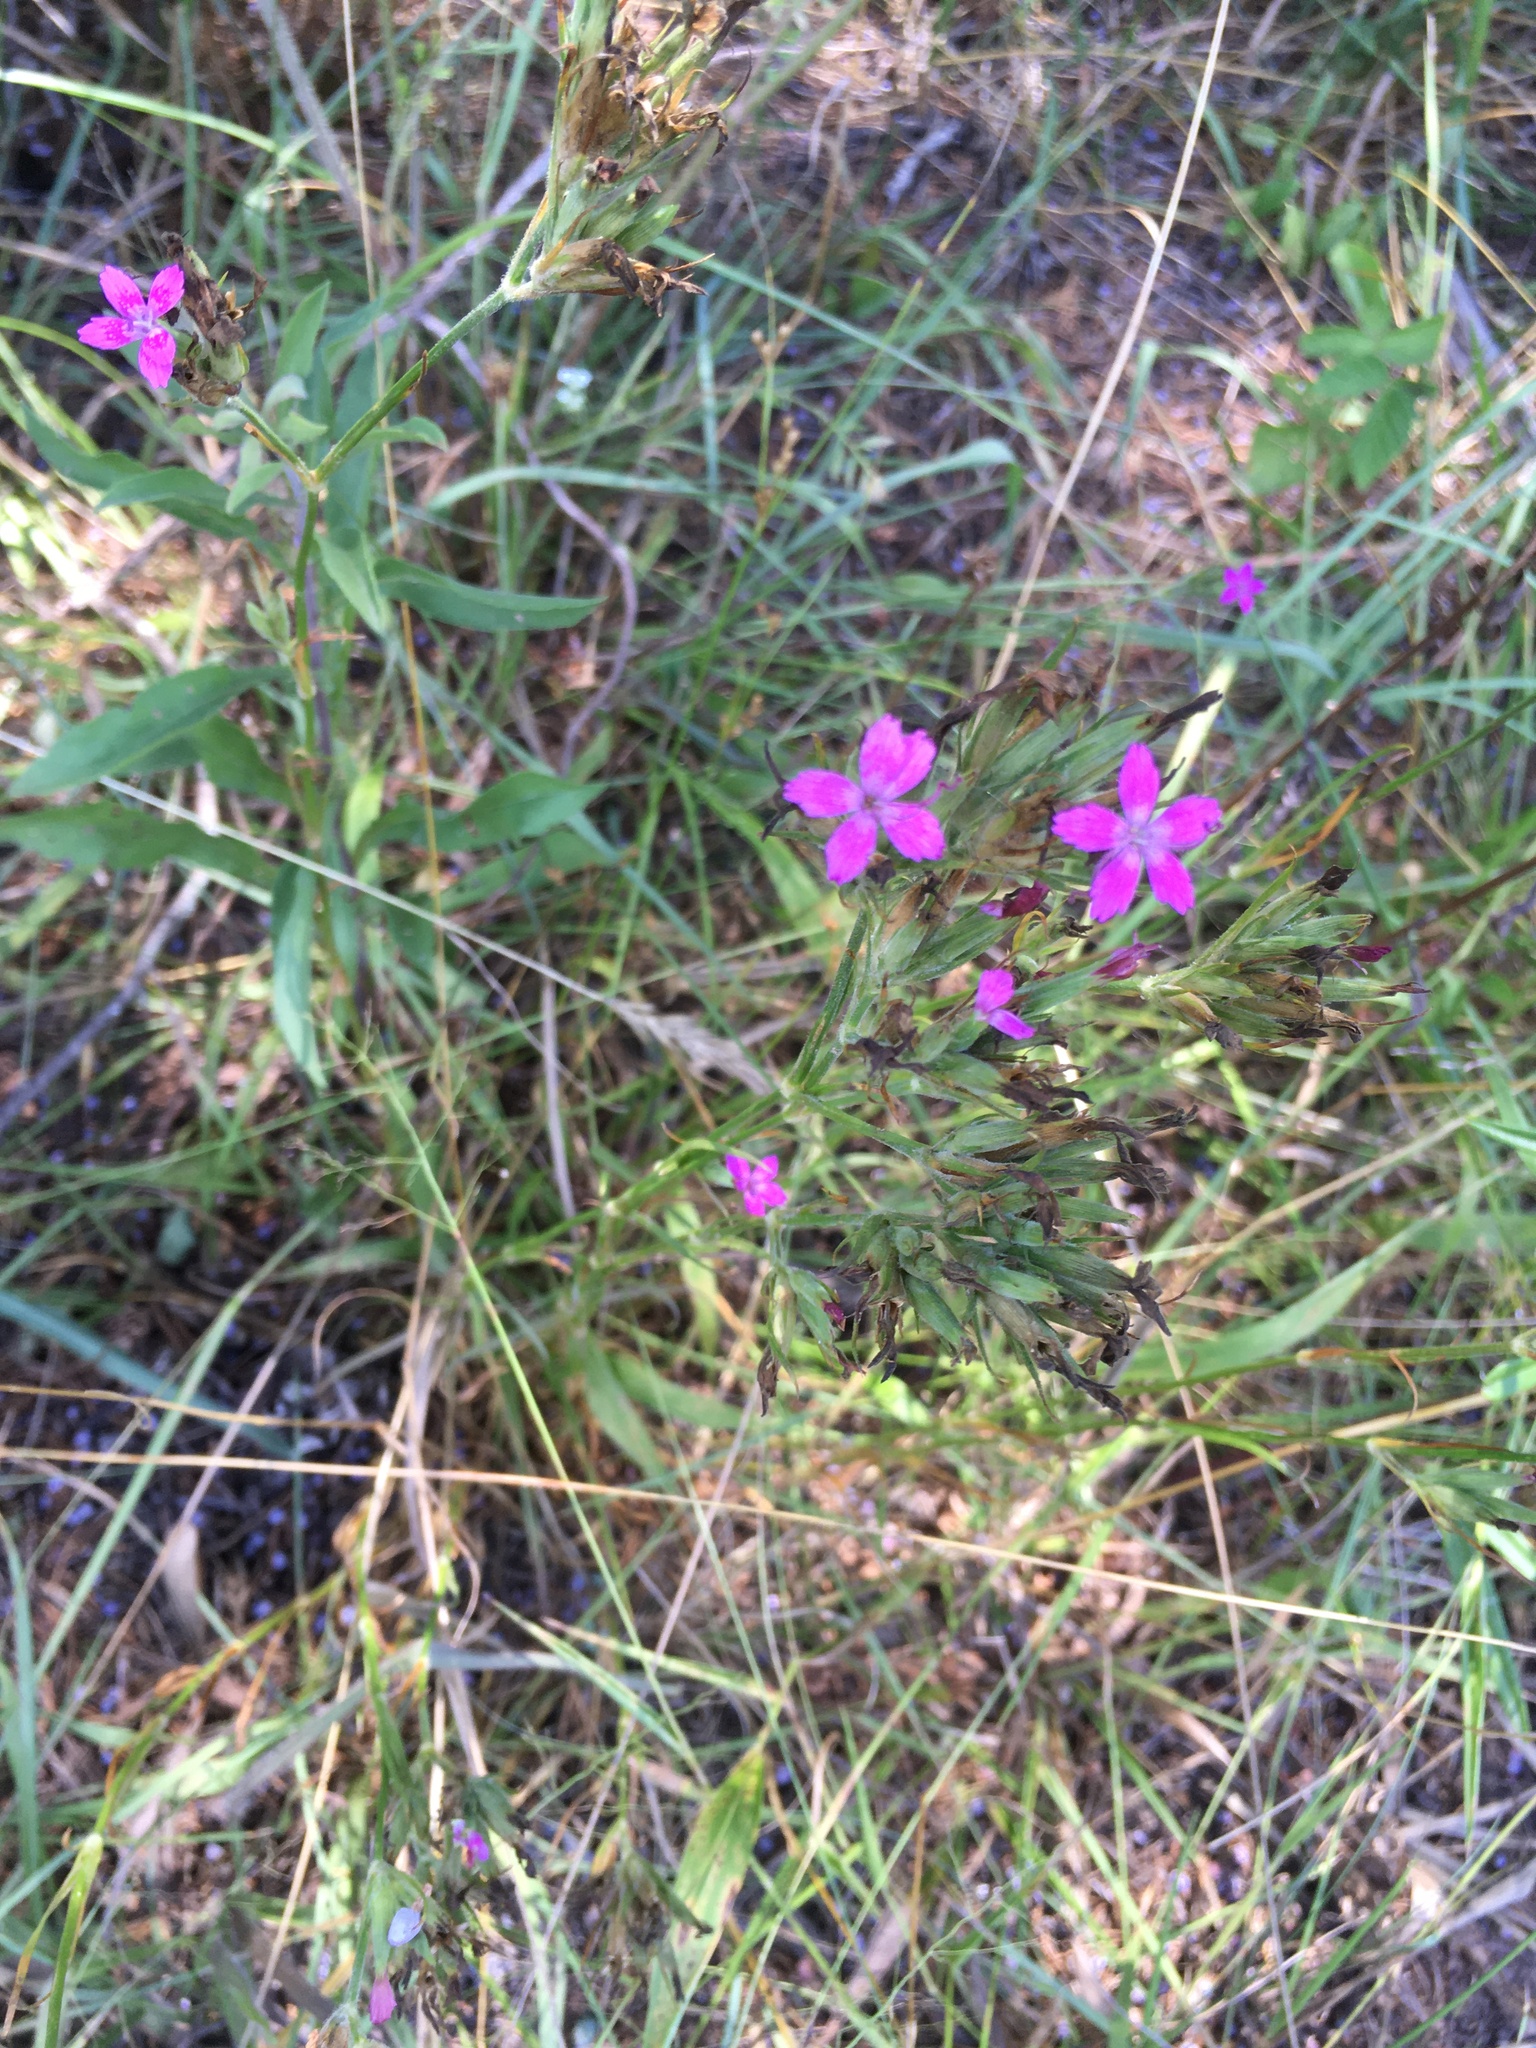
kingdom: Plantae
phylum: Tracheophyta
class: Magnoliopsida
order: Caryophyllales
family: Caryophyllaceae
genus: Dianthus
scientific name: Dianthus armeria
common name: Deptford pink
